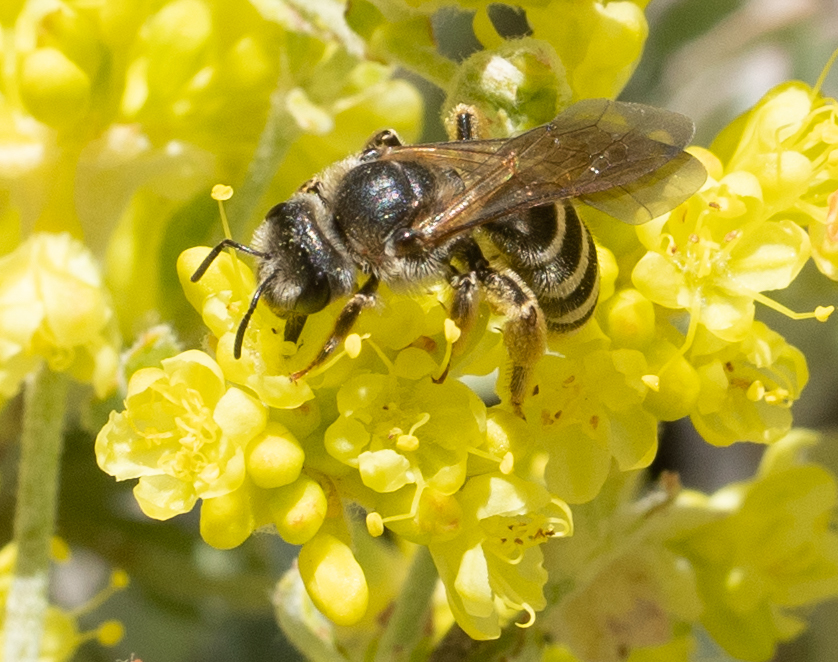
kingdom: Animalia
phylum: Arthropoda
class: Insecta
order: Hymenoptera
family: Halictidae
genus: Halictus
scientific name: Halictus farinosus
